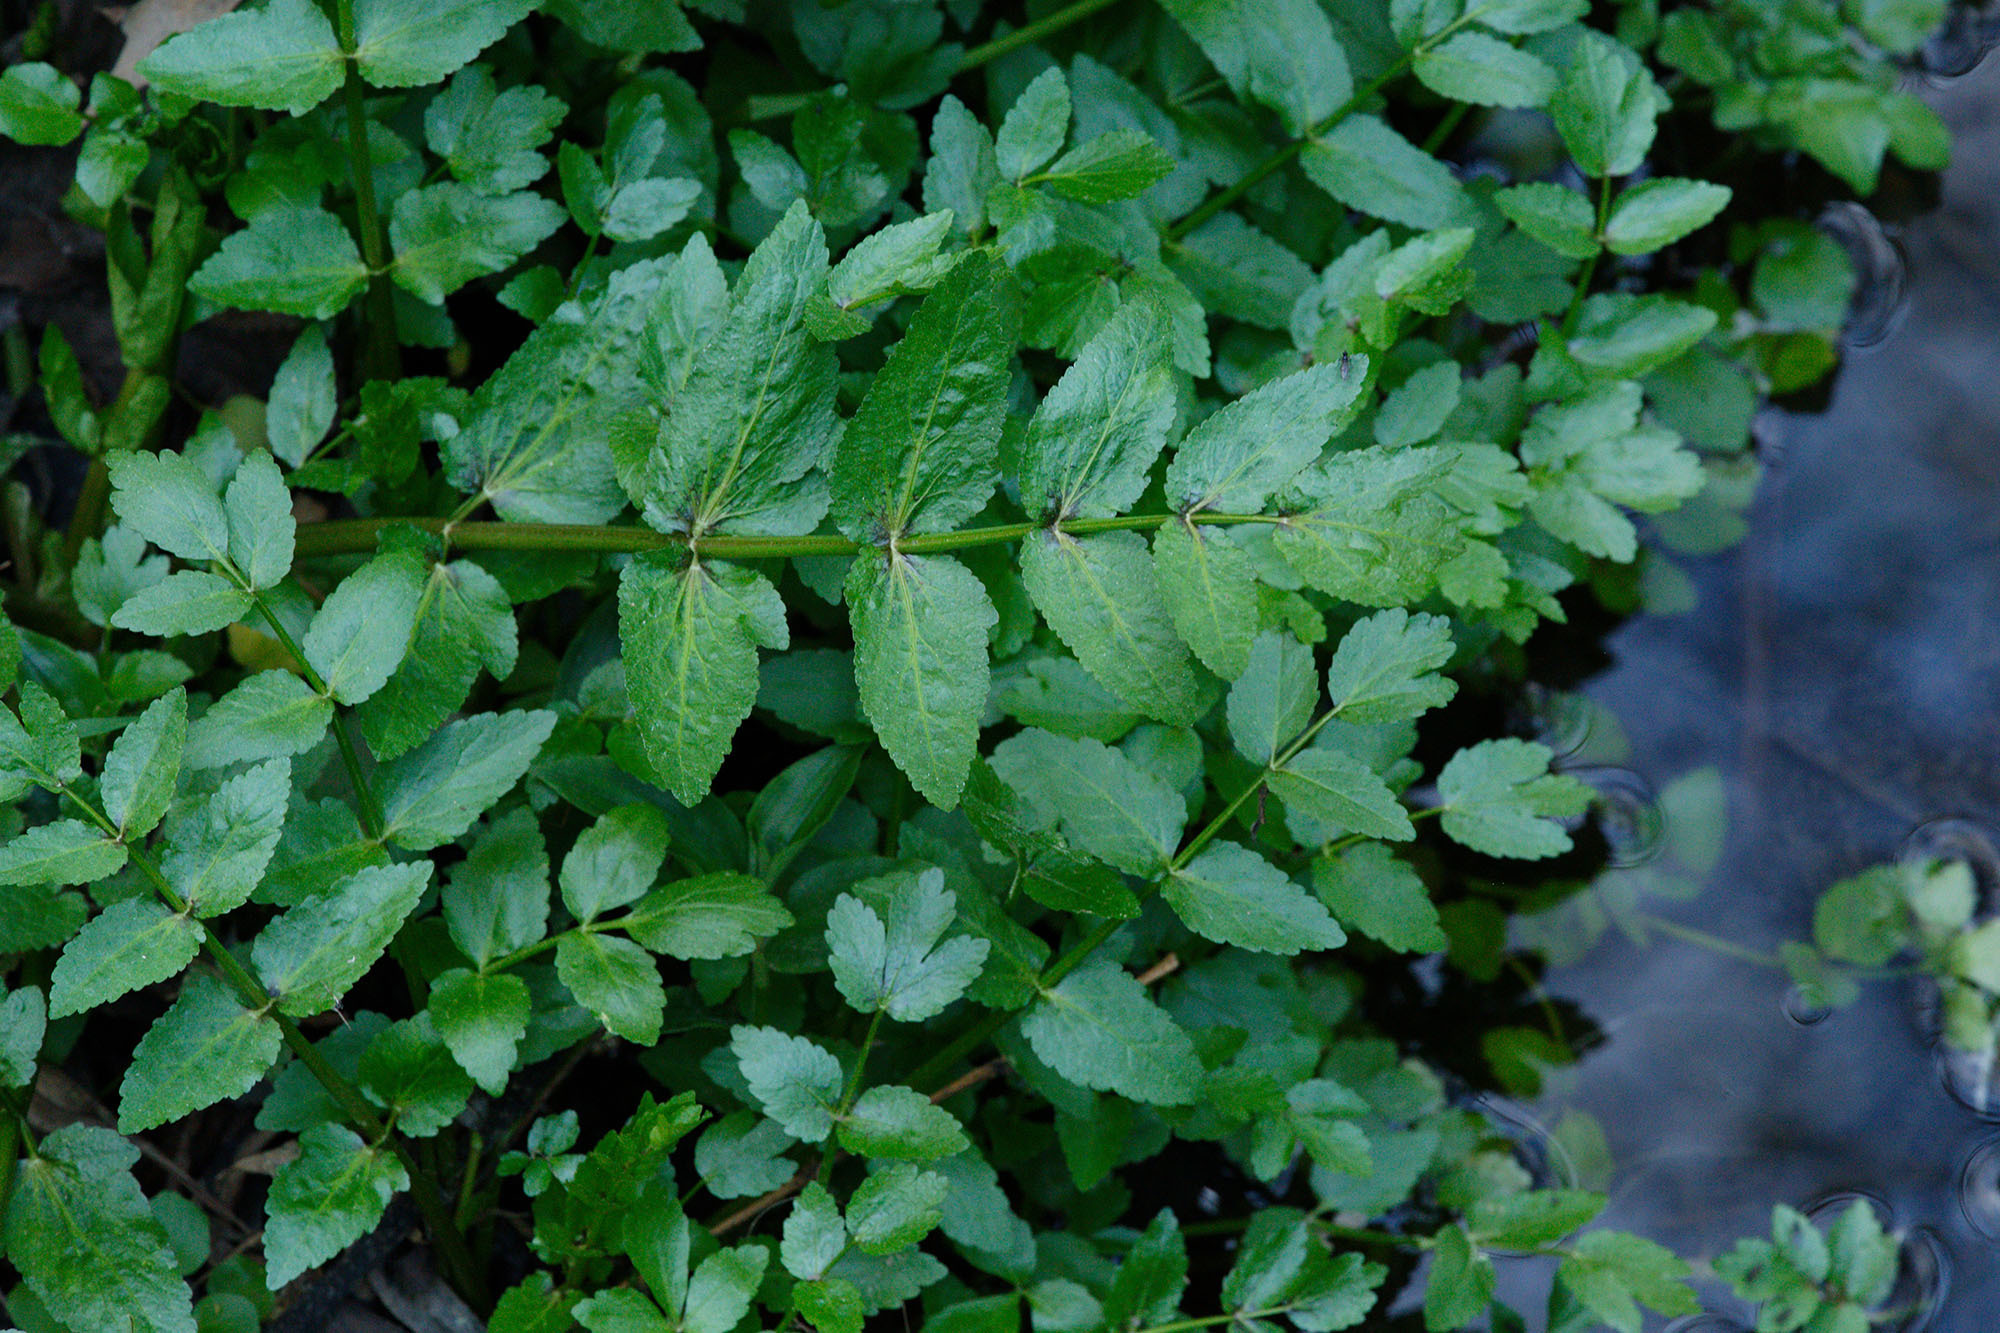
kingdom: Plantae
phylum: Tracheophyta
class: Magnoliopsida
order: Apiales
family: Apiaceae
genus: Helosciadium
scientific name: Helosciadium nodiflorum
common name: Fool's-watercress
